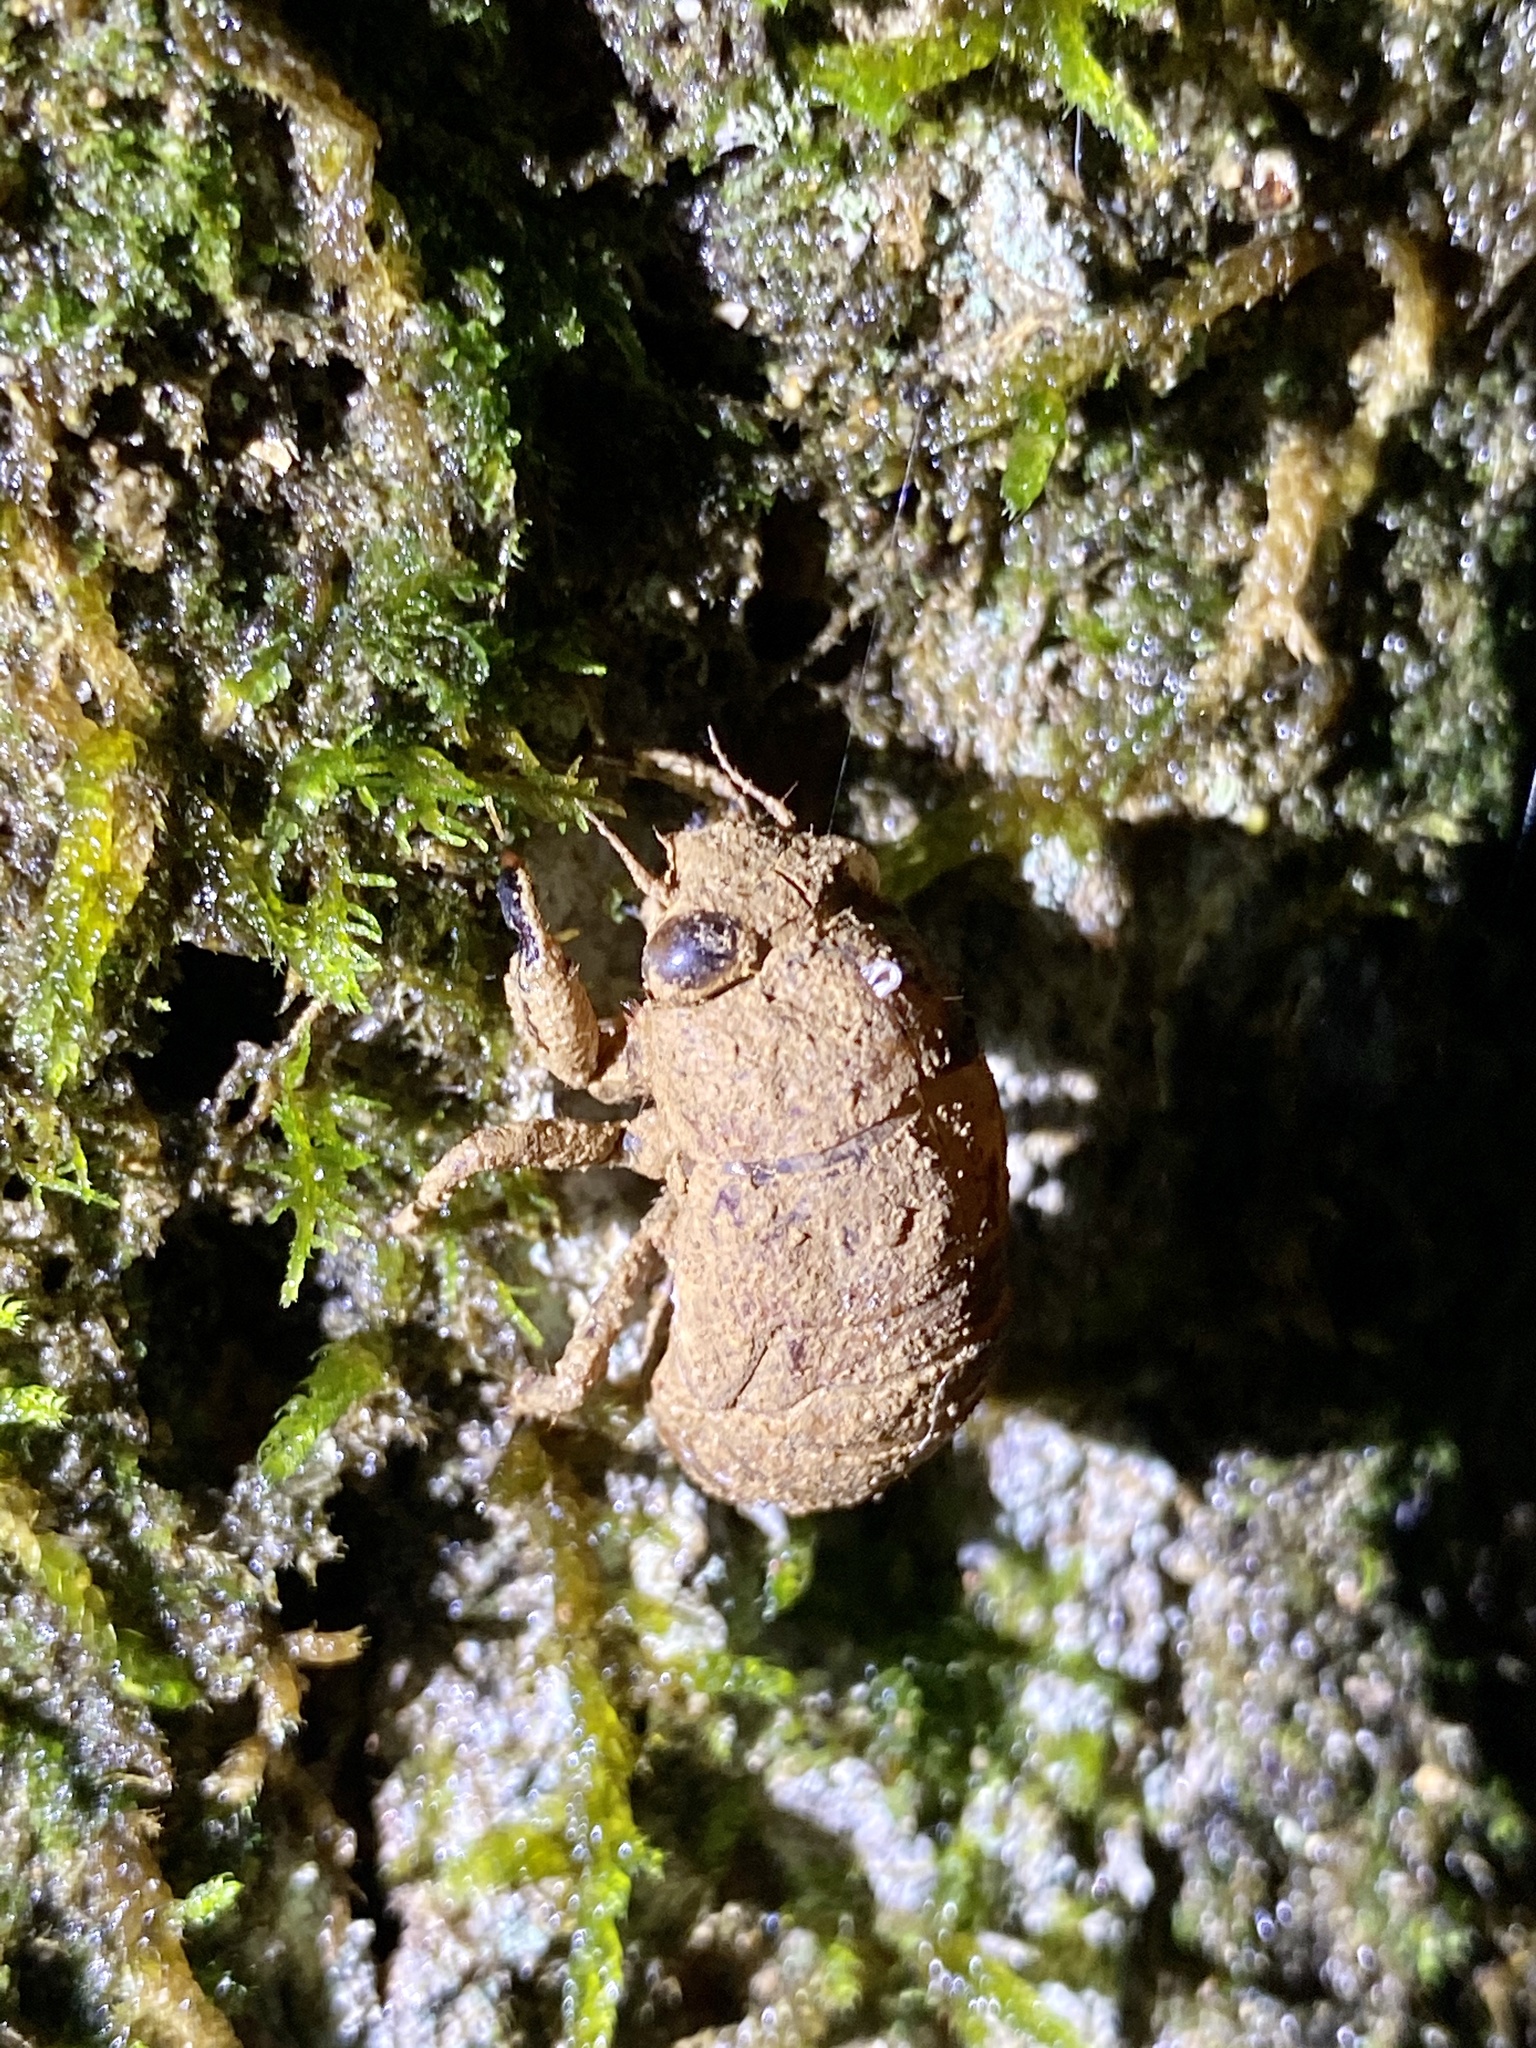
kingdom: Animalia
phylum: Arthropoda
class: Insecta
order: Hemiptera
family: Cicadidae
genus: Platypleura
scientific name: Platypleura kaempferi
